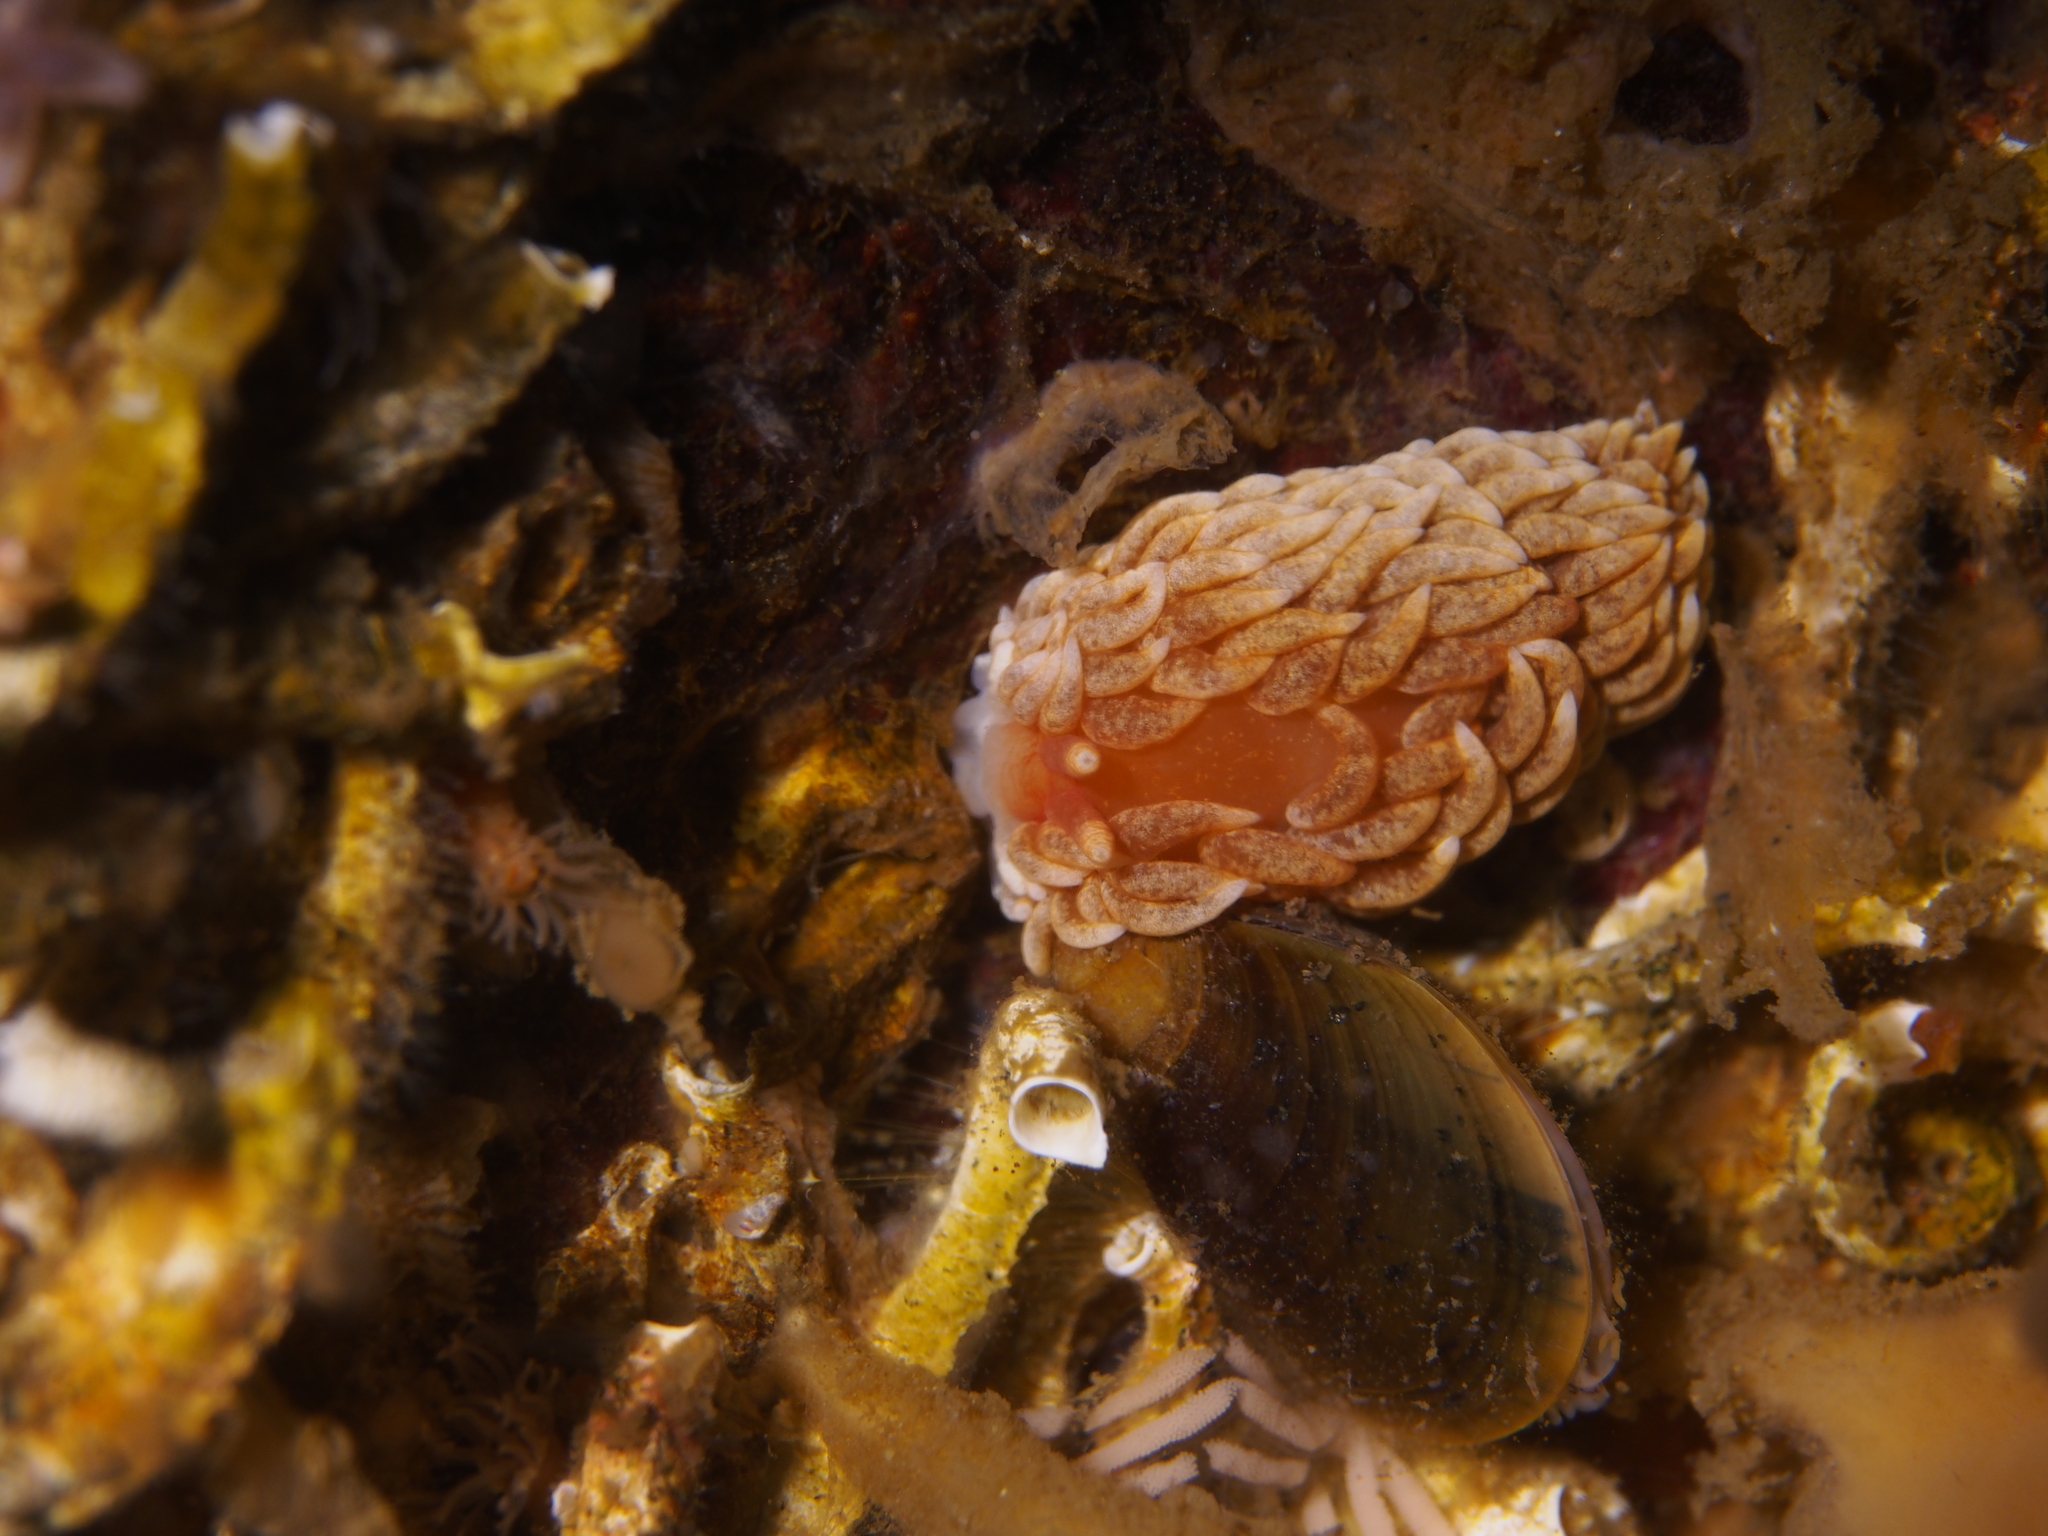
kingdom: Animalia
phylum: Mollusca
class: Gastropoda
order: Nudibranchia
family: Aeolidiidae
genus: Aeolidiella
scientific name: Aeolidiella glauca
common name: Orange-brown aeolid
